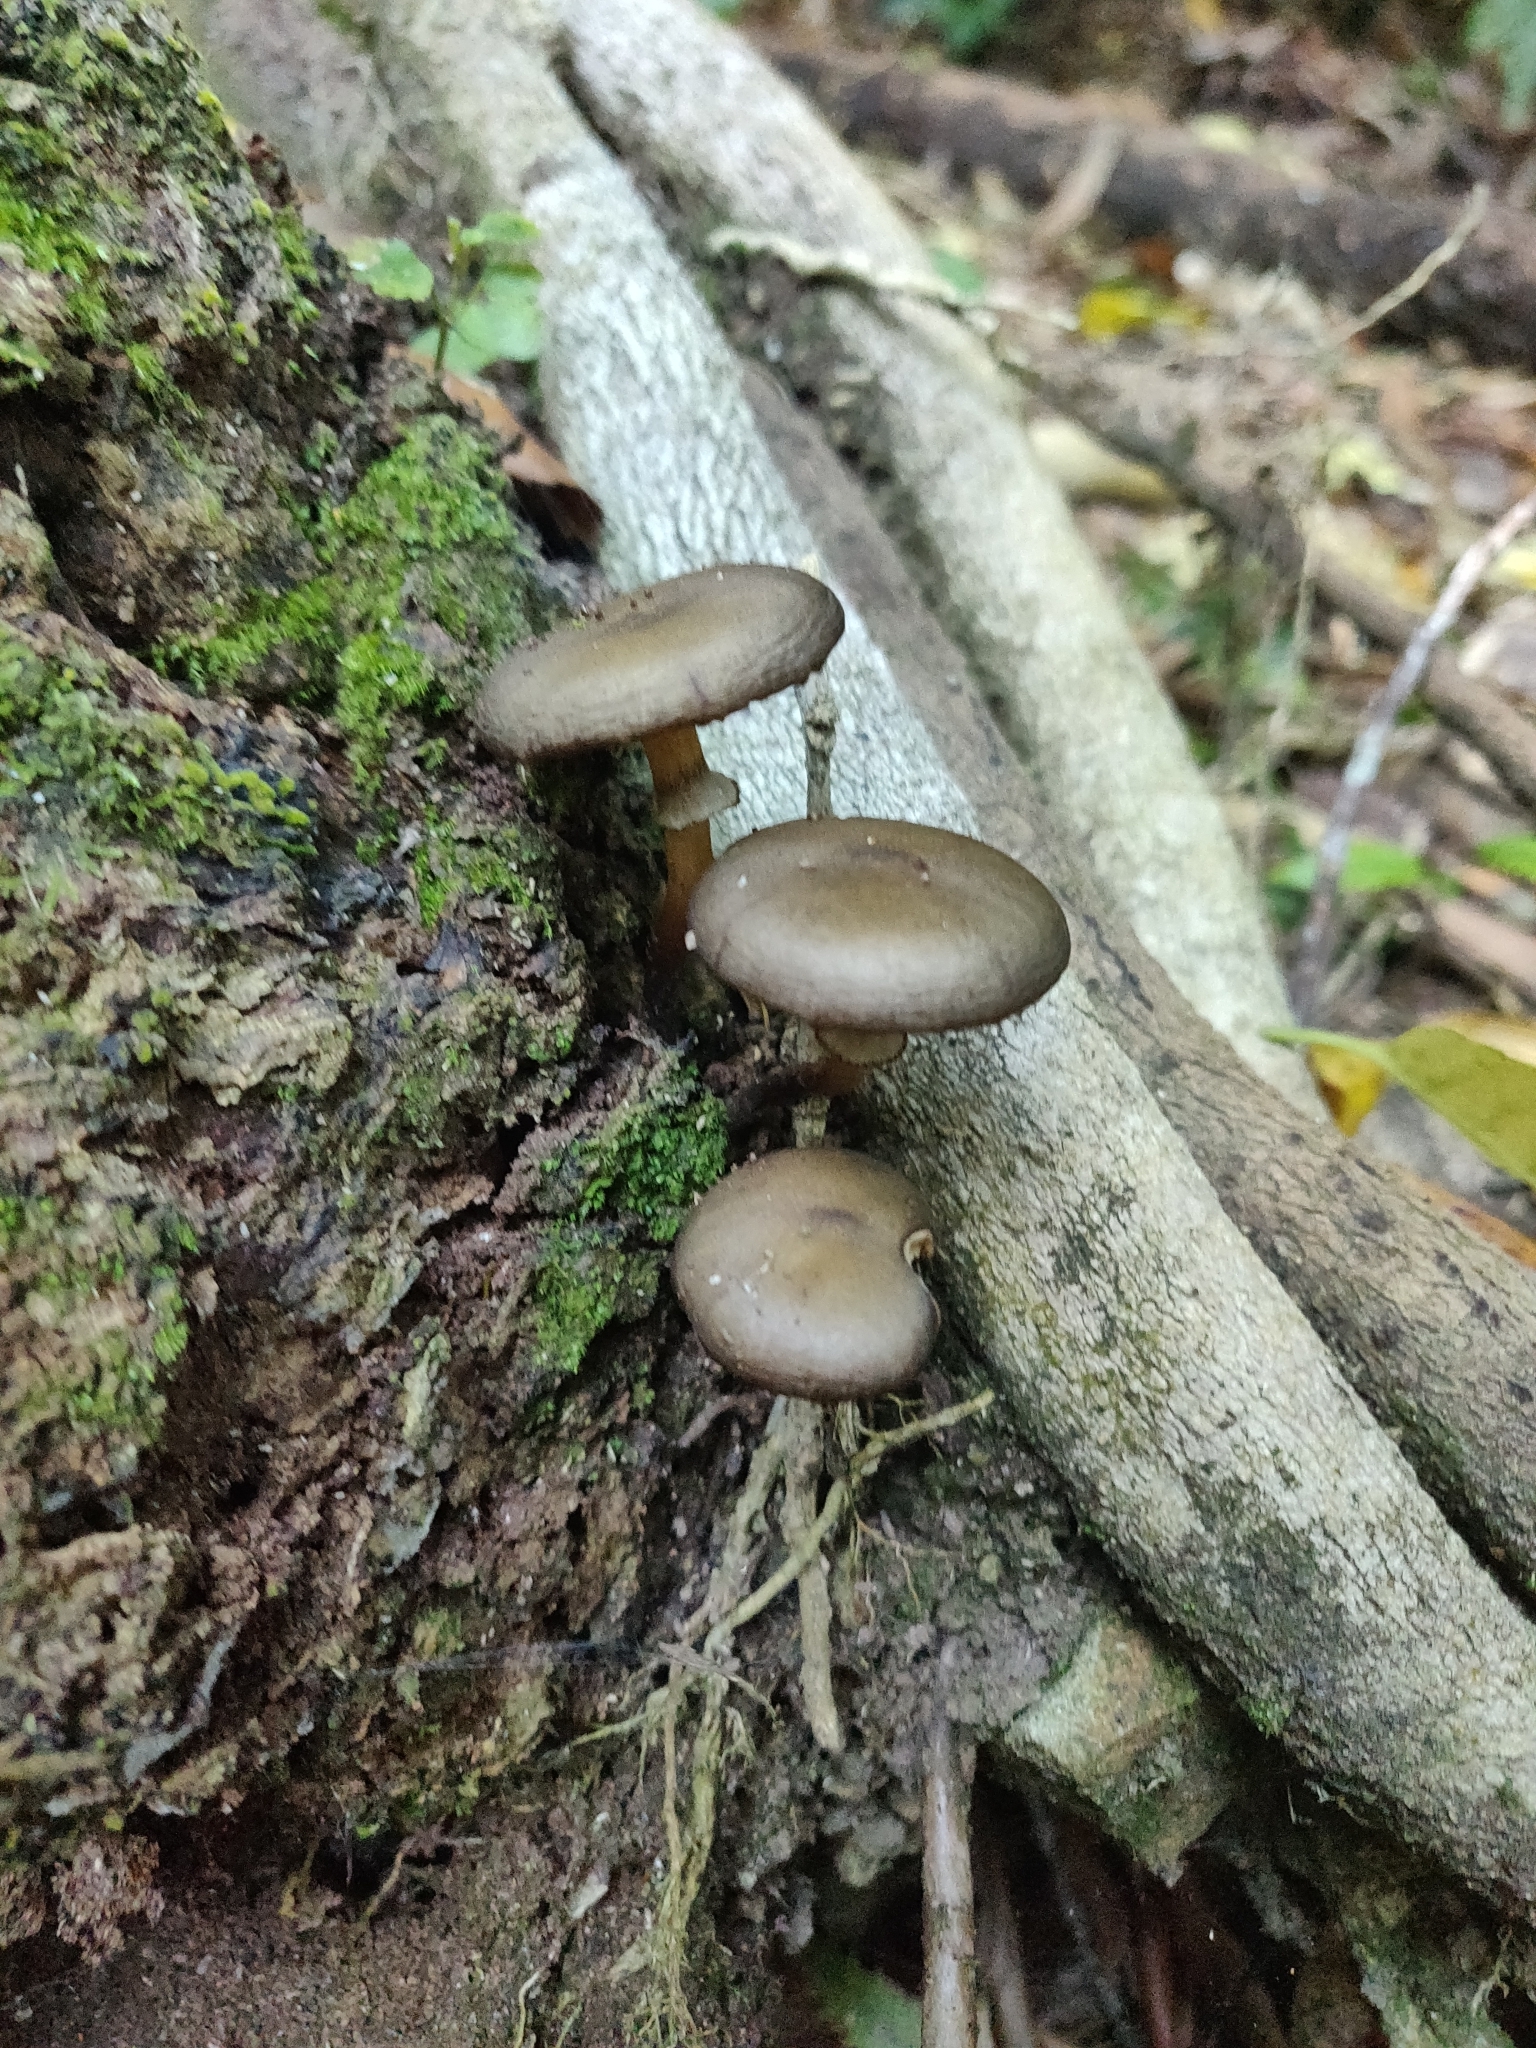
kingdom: Fungi
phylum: Basidiomycota
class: Agaricomycetes
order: Agaricales
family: Physalacriaceae
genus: Armillaria
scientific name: Armillaria novae-zelandiae
